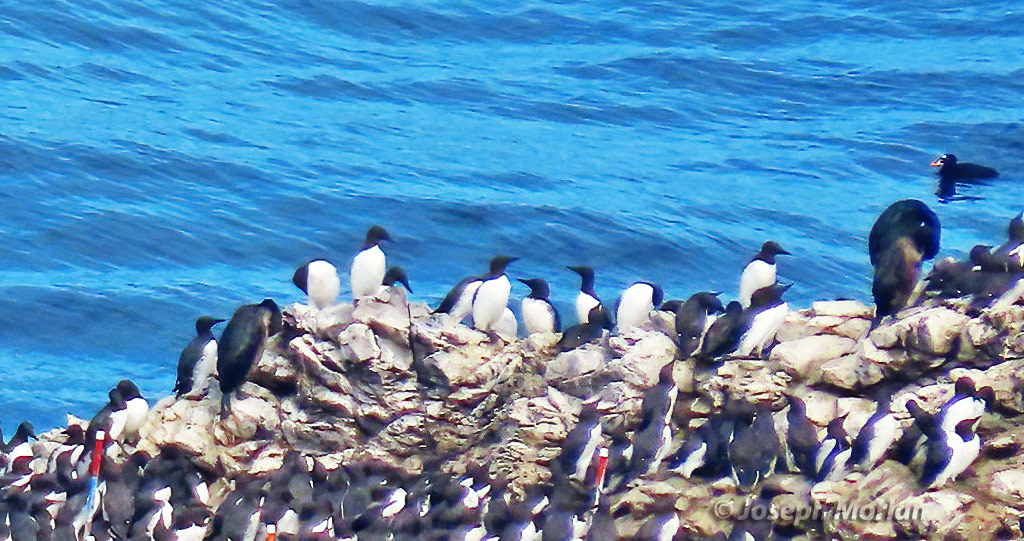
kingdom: Animalia
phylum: Chordata
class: Aves
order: Charadriiformes
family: Alcidae
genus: Uria
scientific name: Uria aalge
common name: Common murre
